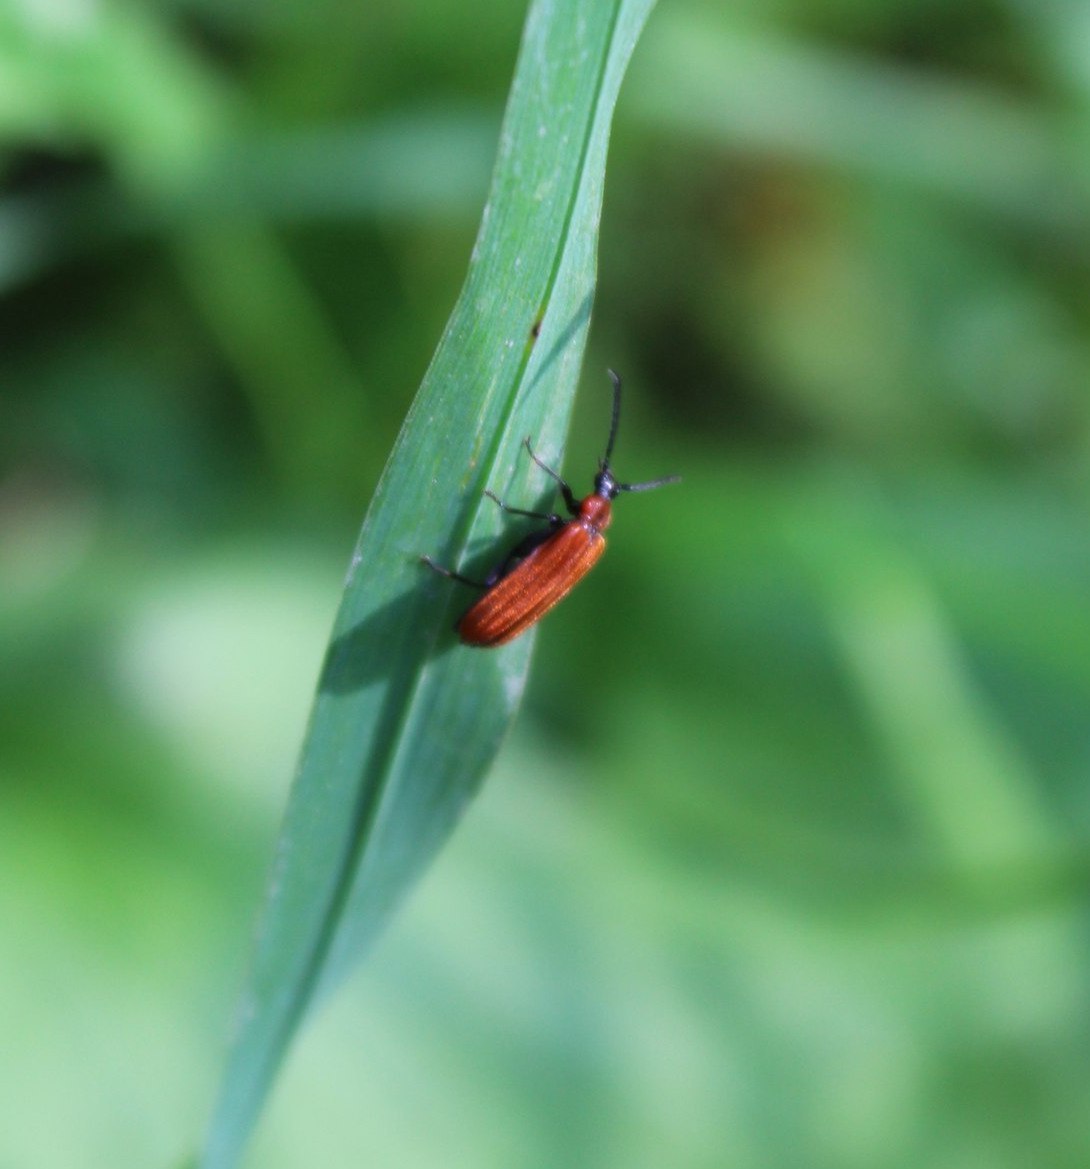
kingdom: Animalia
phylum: Arthropoda
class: Insecta
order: Coleoptera
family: Pyrochroidae
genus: Schizotus
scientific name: Schizotus pectinicornis
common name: Scarce cardinal beetle
